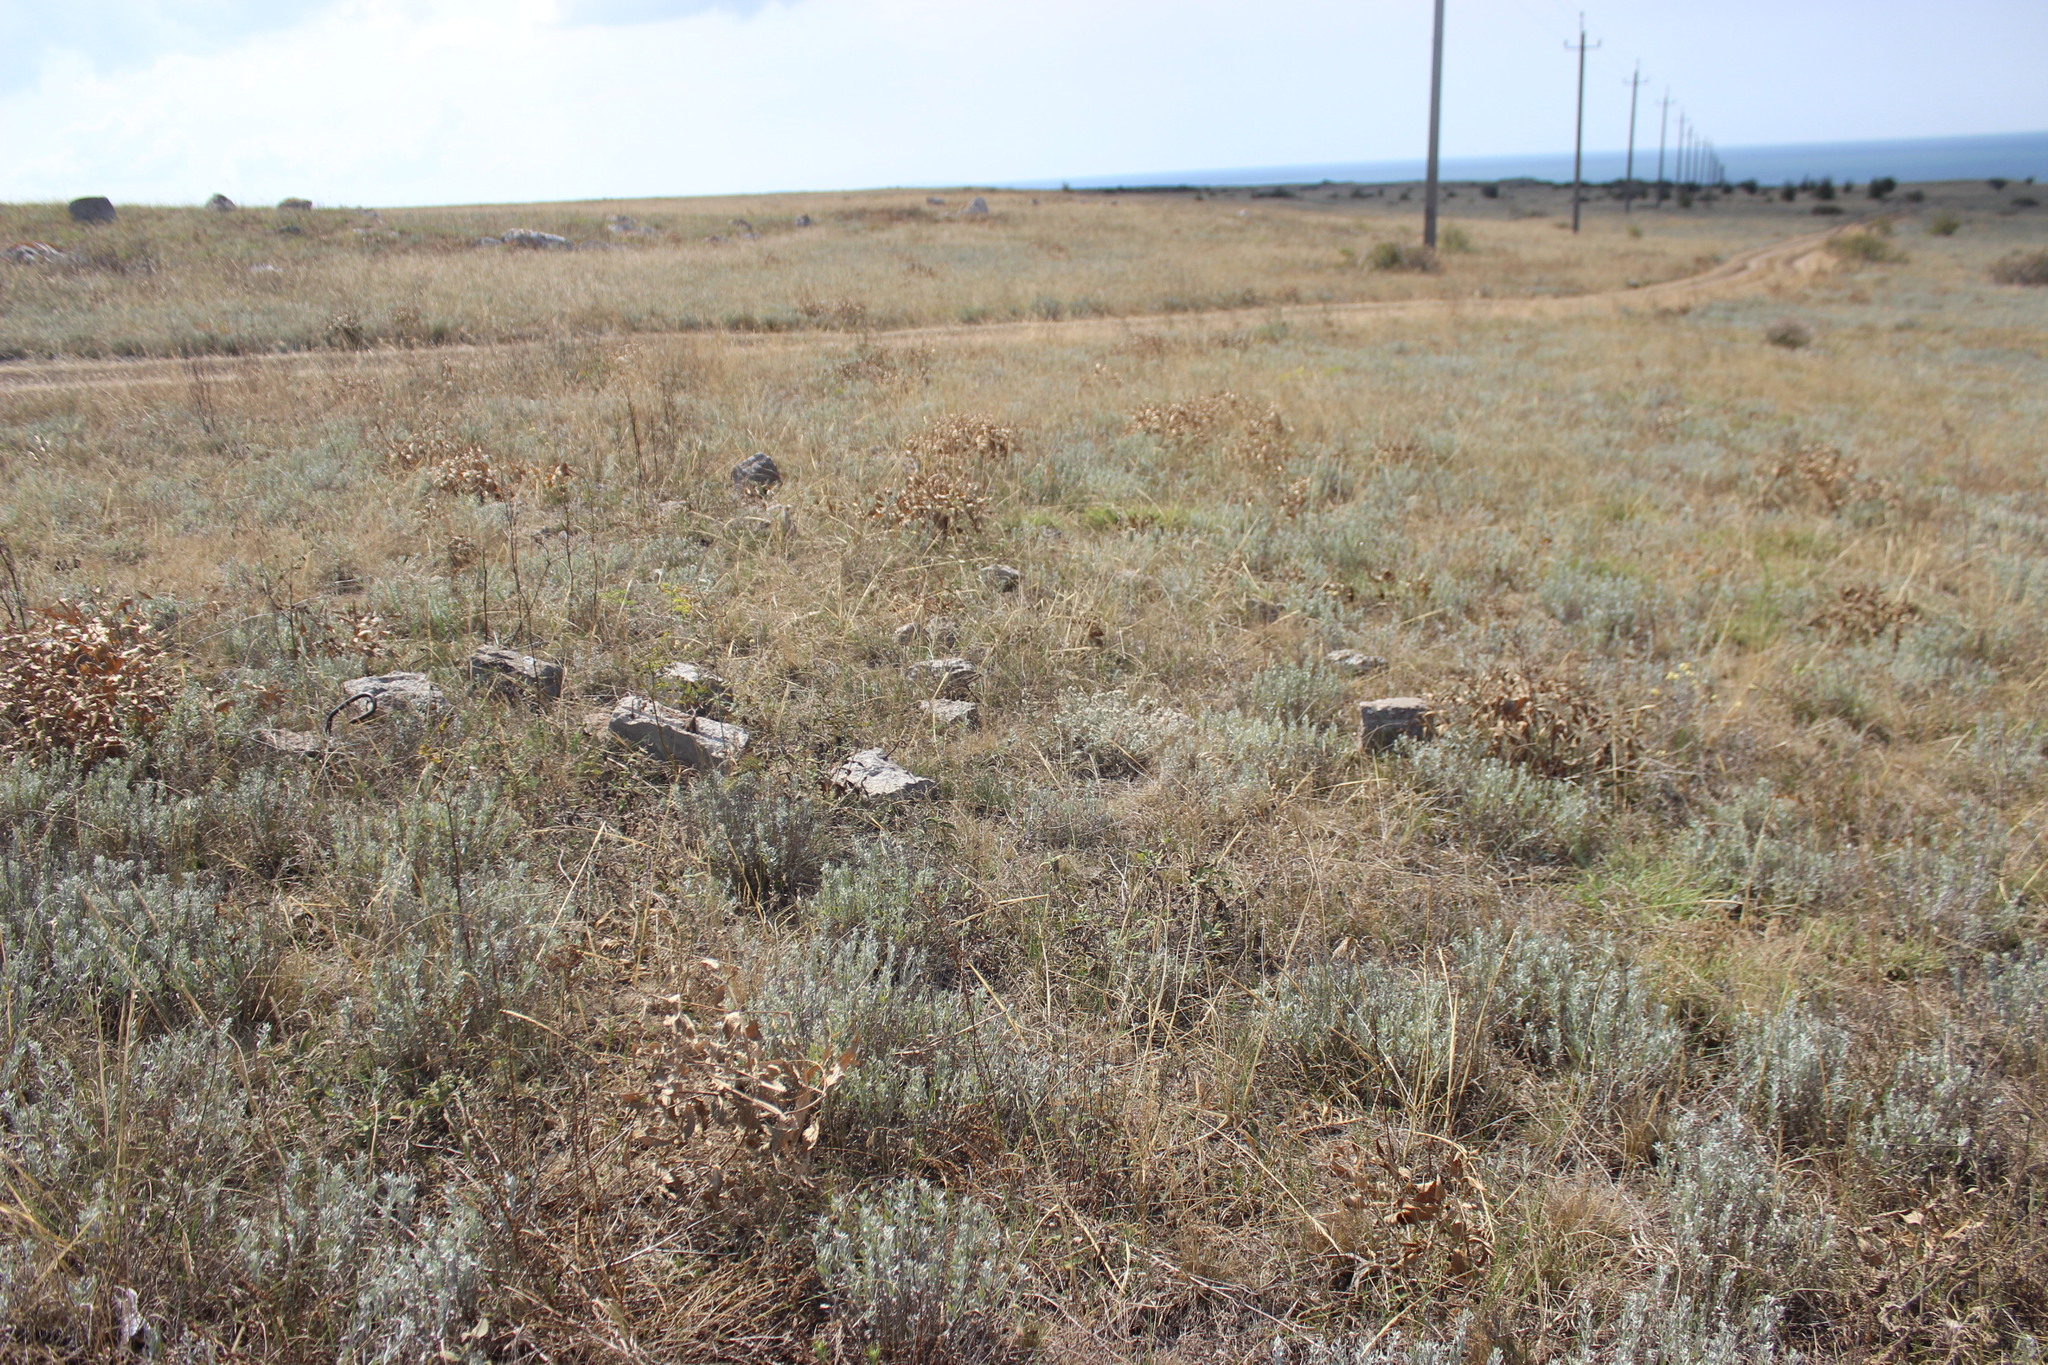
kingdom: Plantae
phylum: Tracheophyta
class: Magnoliopsida
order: Asterales
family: Asteraceae
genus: Galatella
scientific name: Galatella villosa
